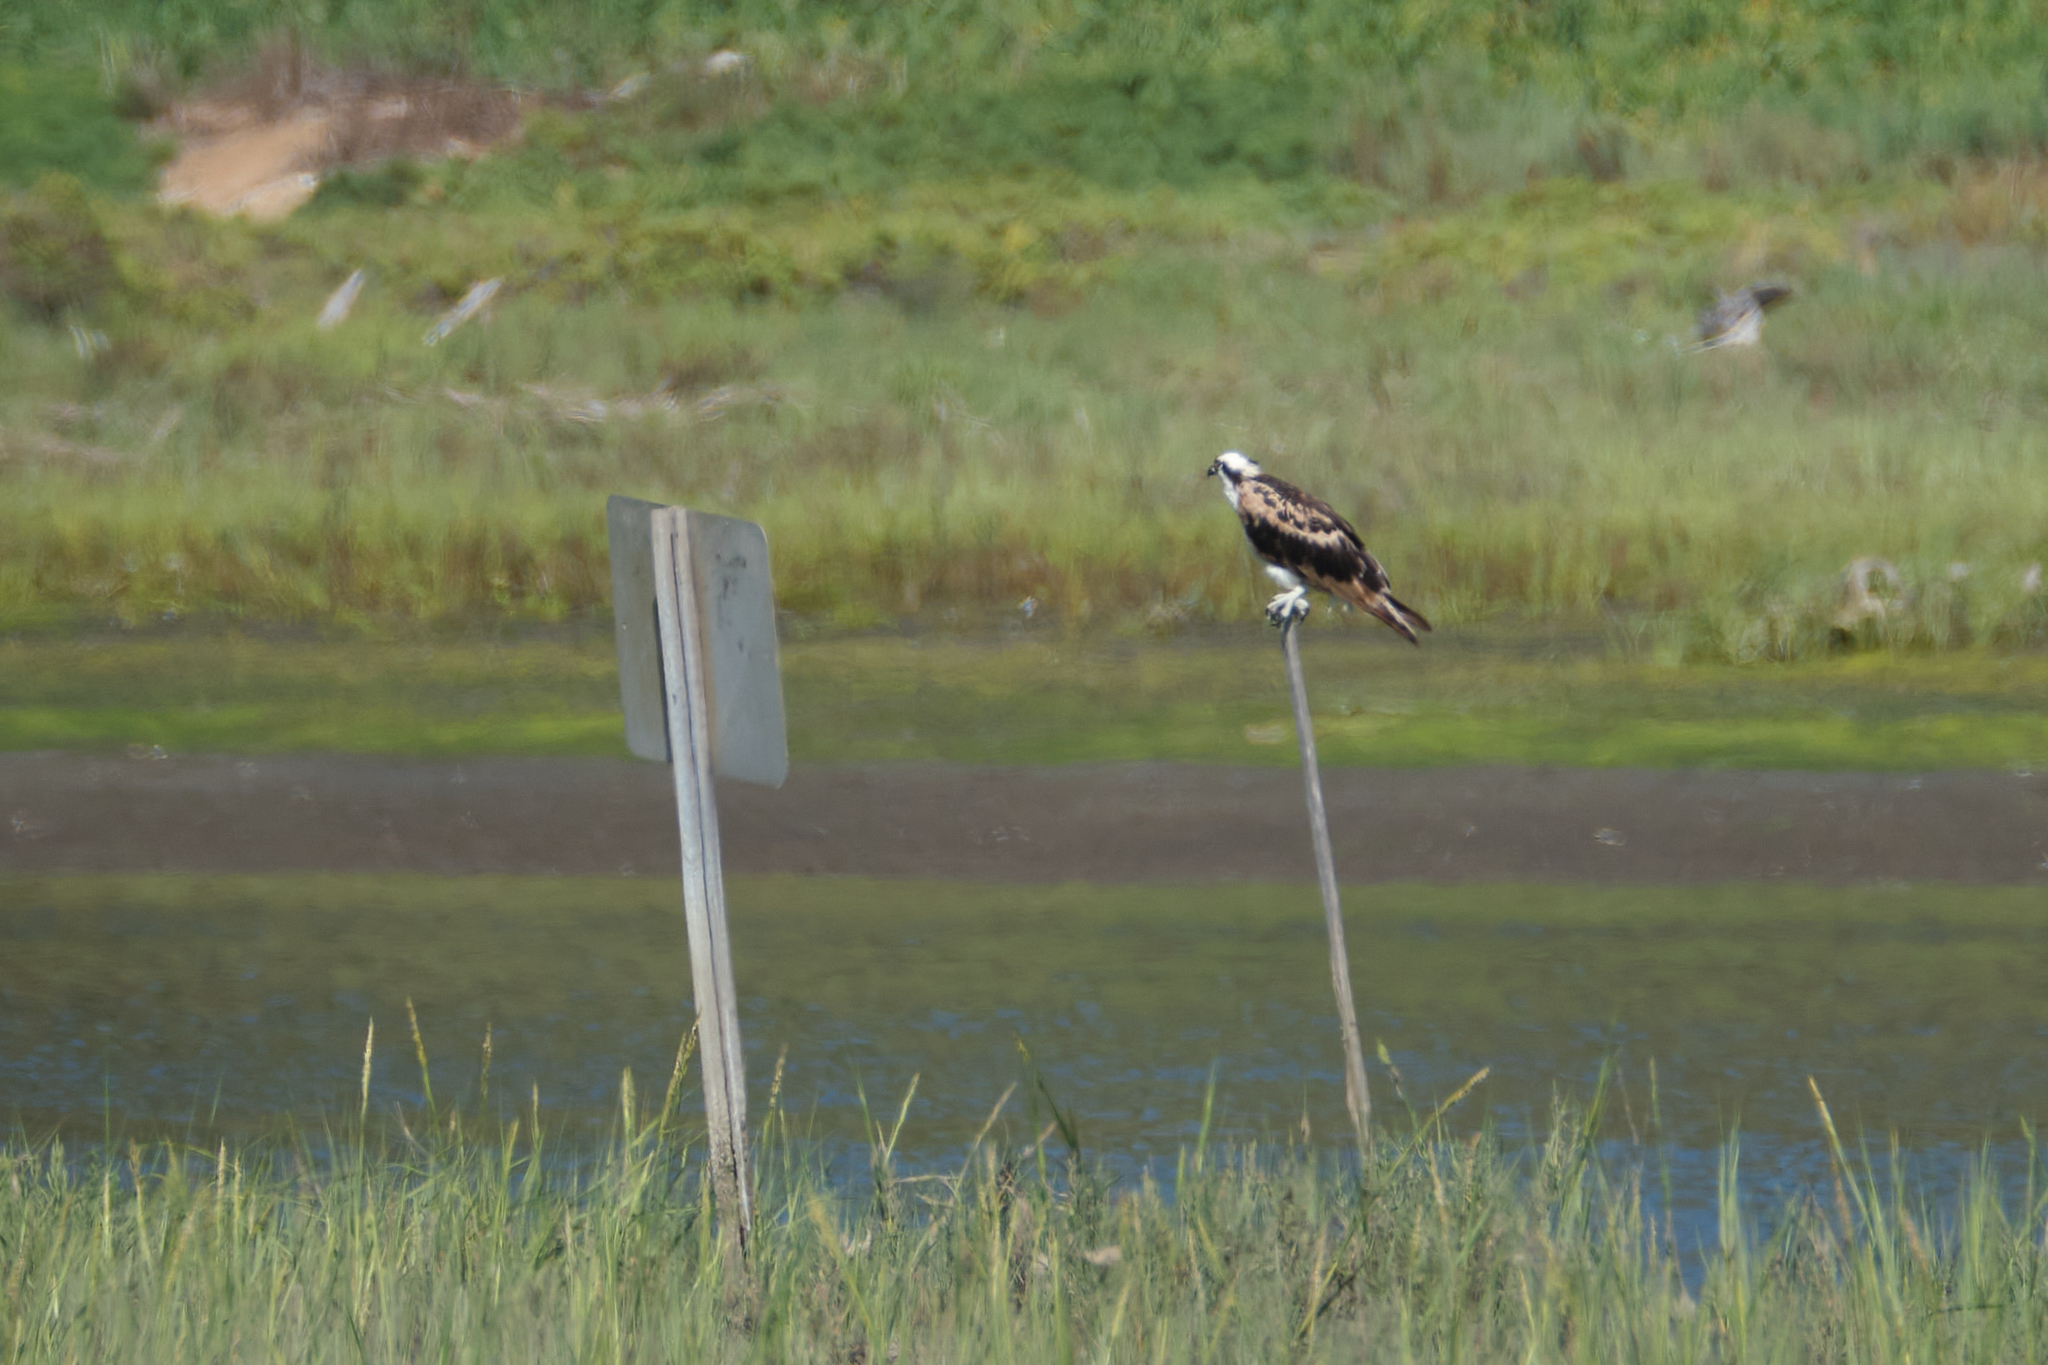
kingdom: Animalia
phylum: Chordata
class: Aves
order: Accipitriformes
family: Pandionidae
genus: Pandion
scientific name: Pandion haliaetus
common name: Osprey
